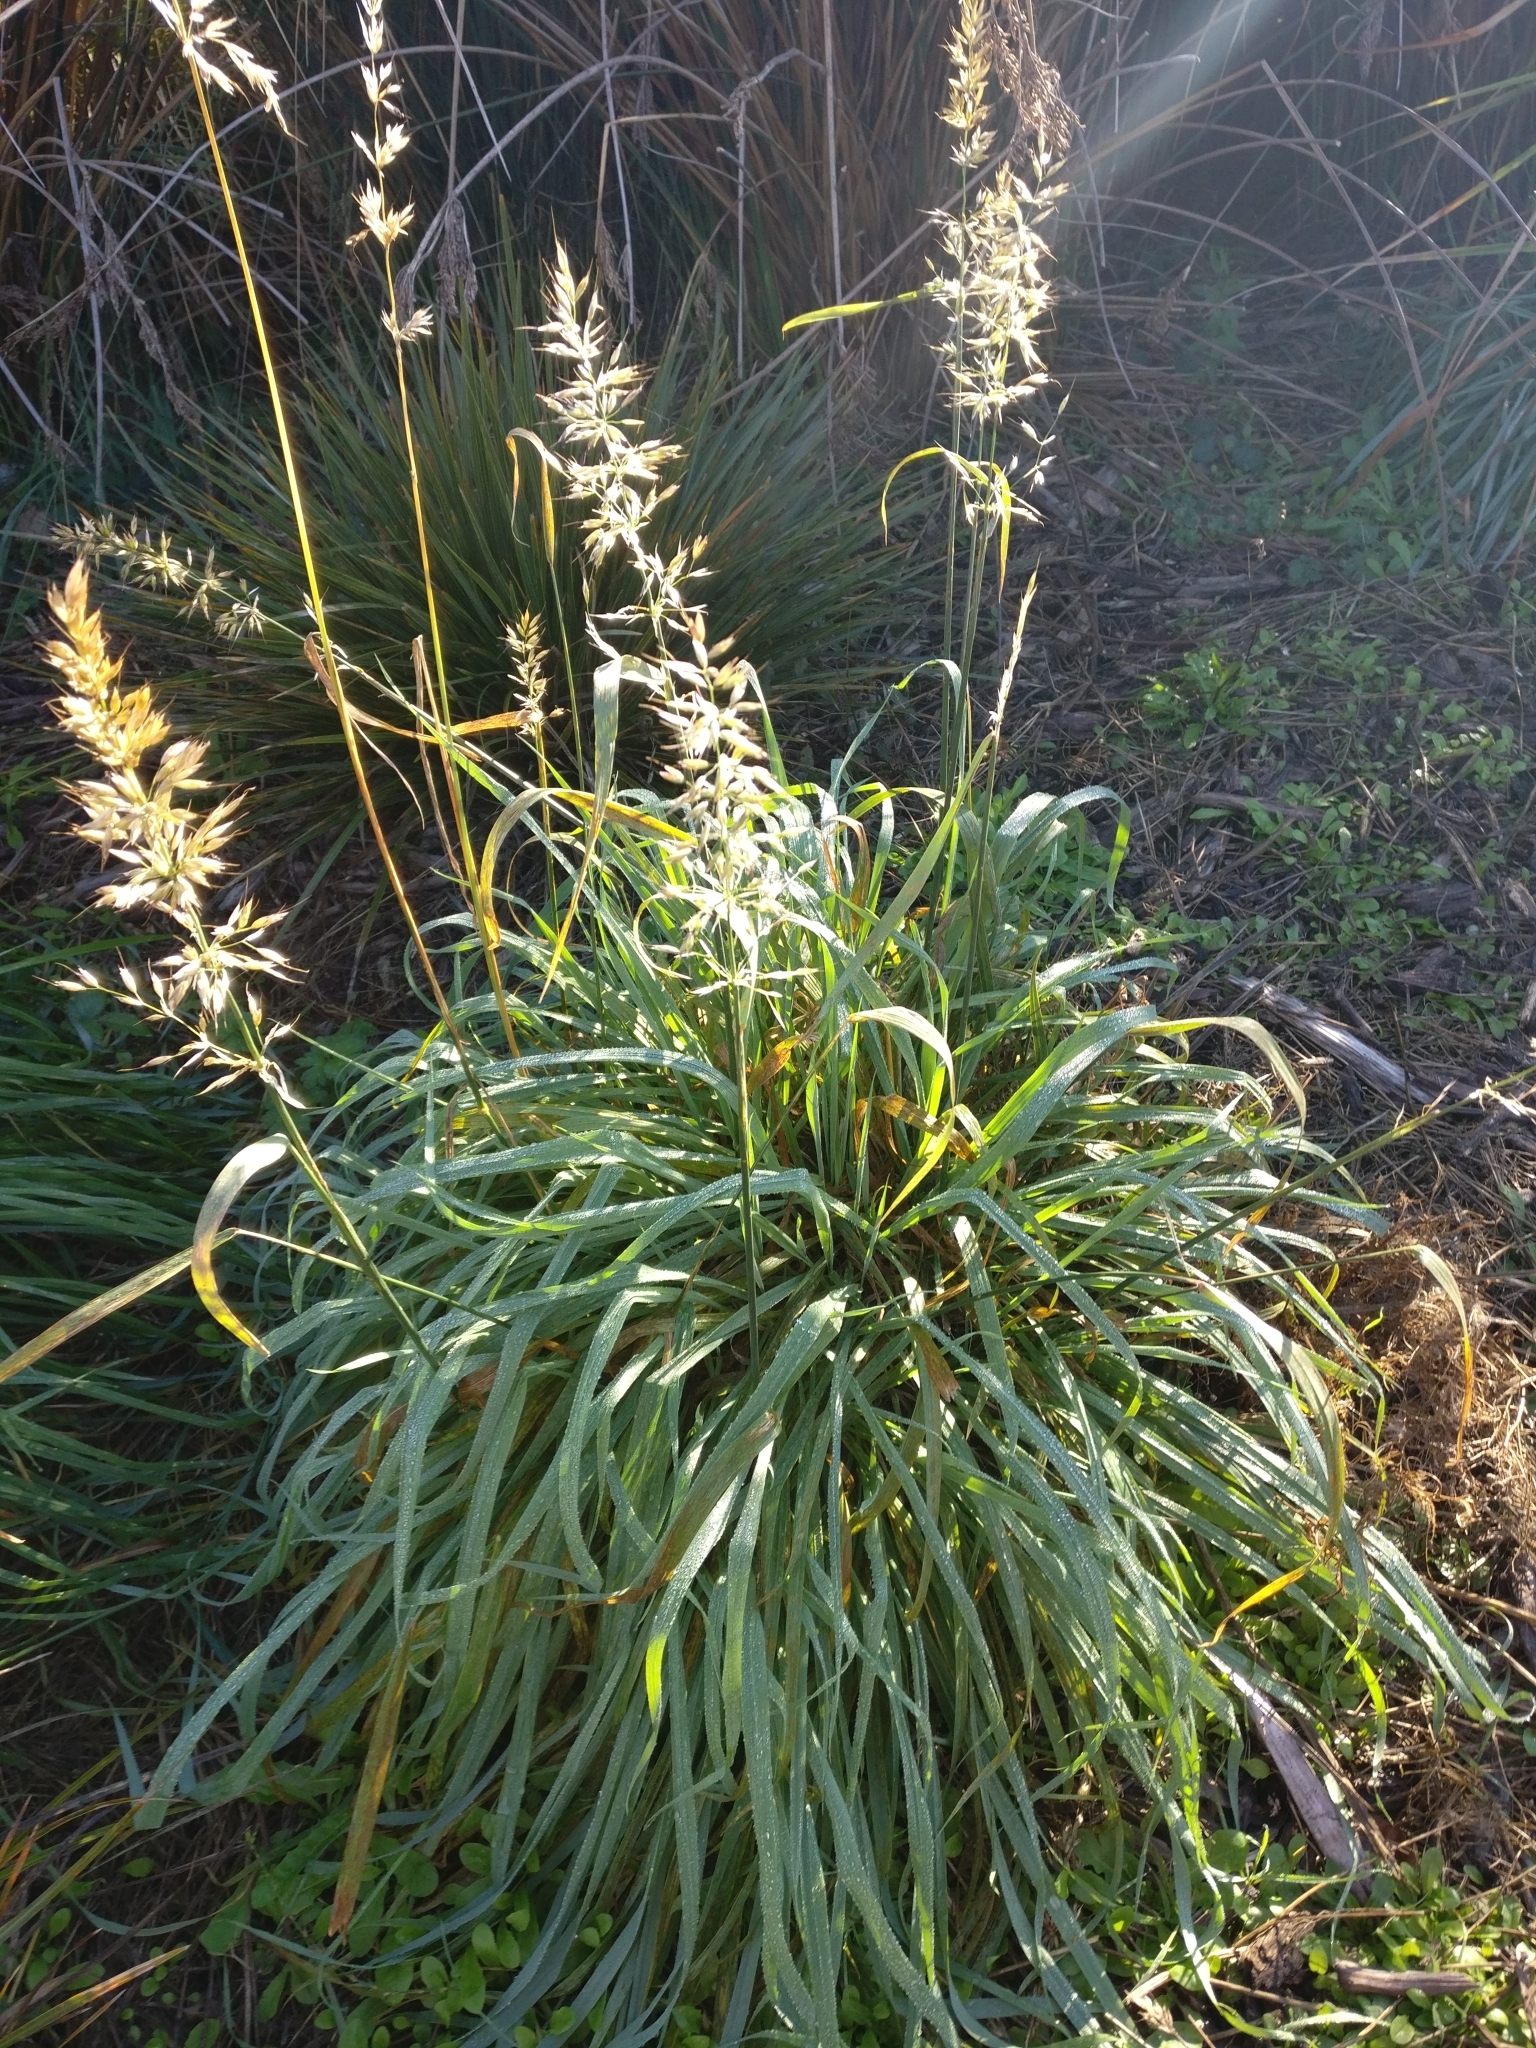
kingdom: Plantae
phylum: Tracheophyta
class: Liliopsida
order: Poales
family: Poaceae
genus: Arrhenatherum
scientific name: Arrhenatherum elatius
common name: Tall oatgrass
